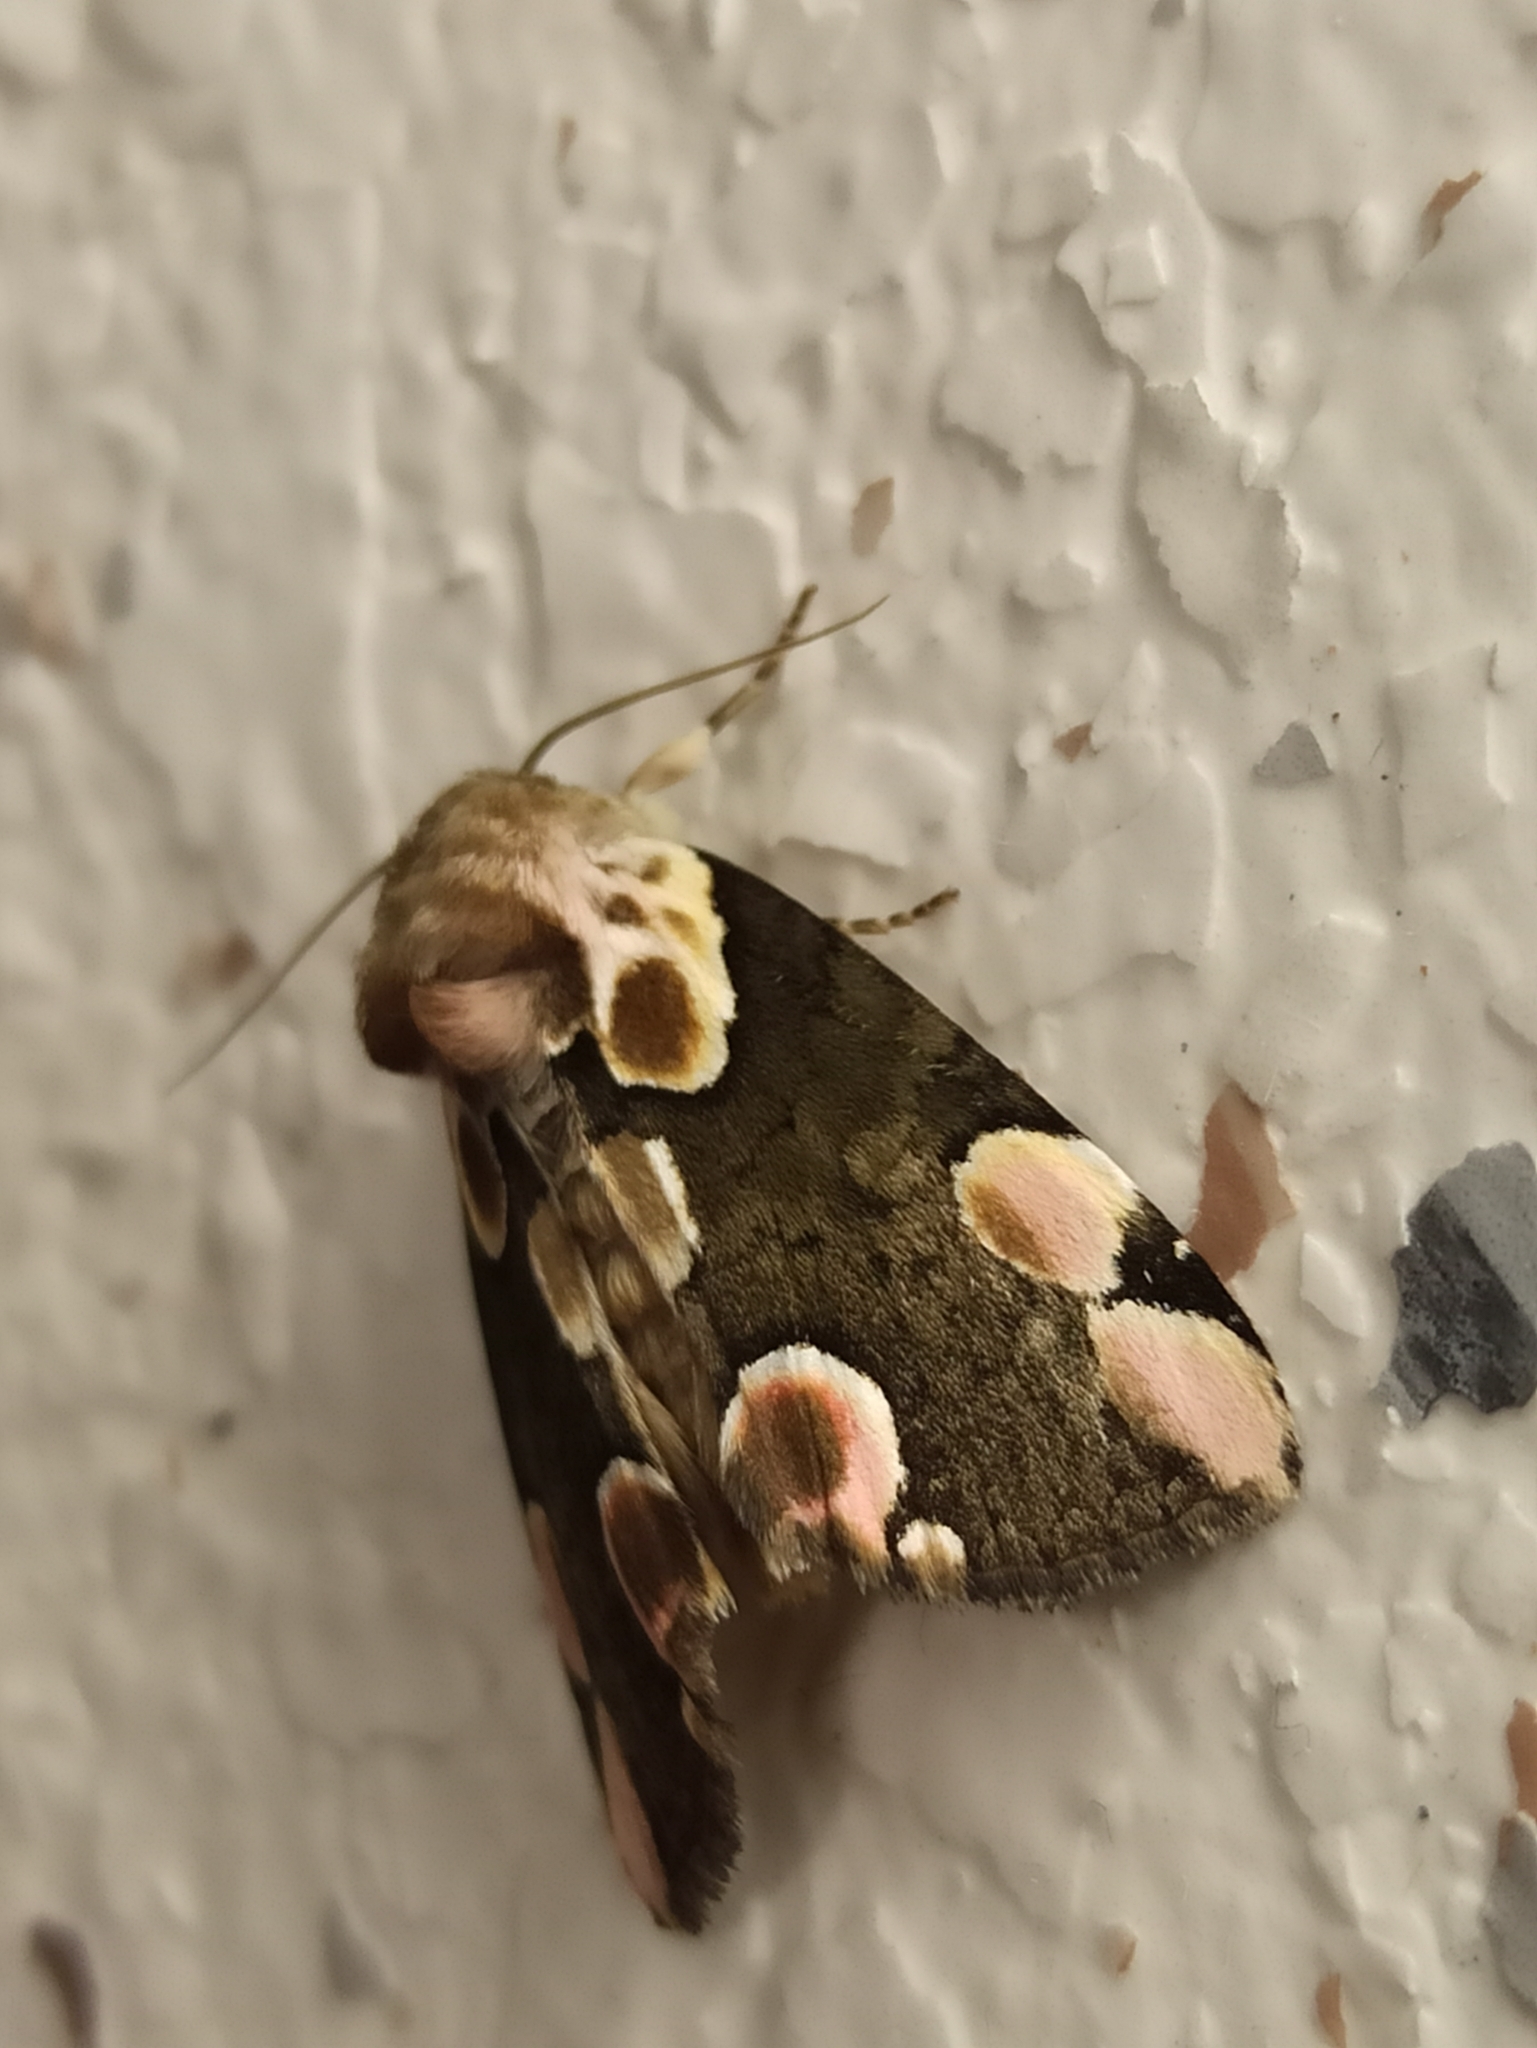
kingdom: Animalia
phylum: Arthropoda
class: Insecta
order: Lepidoptera
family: Drepanidae
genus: Thyatira
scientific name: Thyatira batis
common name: Peach blossom
